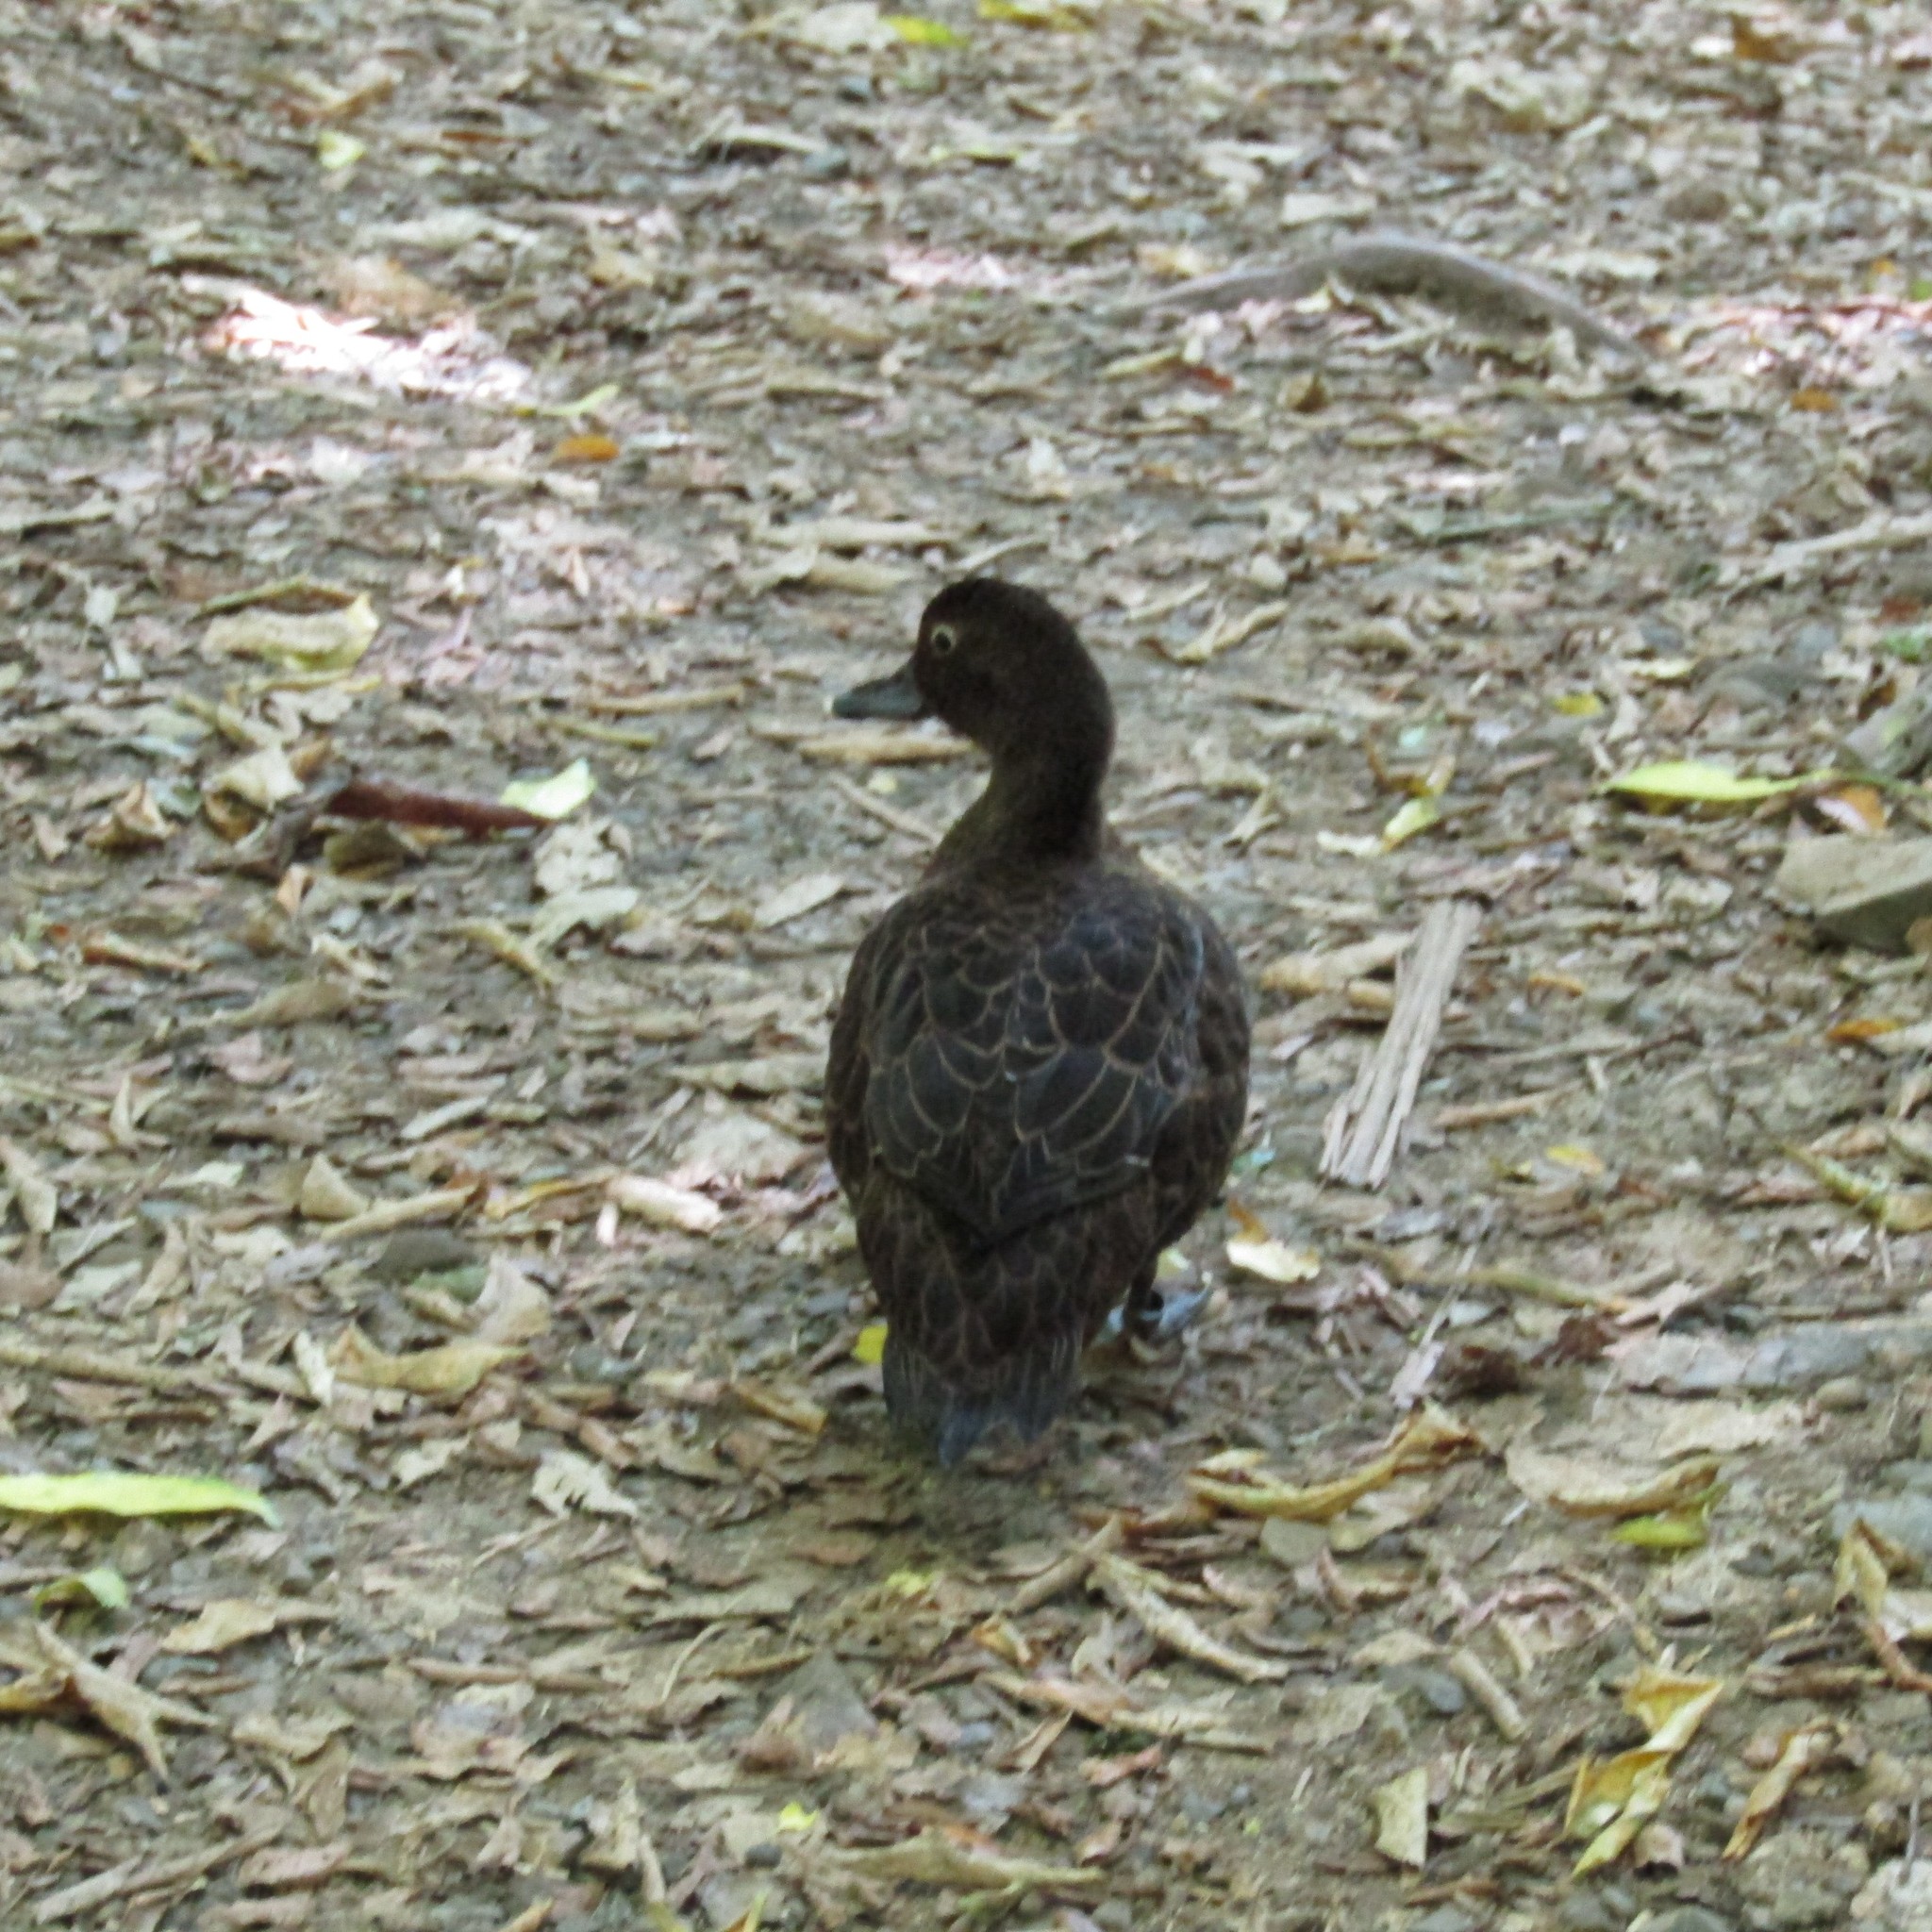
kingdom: Animalia
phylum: Chordata
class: Aves
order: Anseriformes
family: Anatidae
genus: Anas
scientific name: Anas chlorotis
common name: Brown teal
